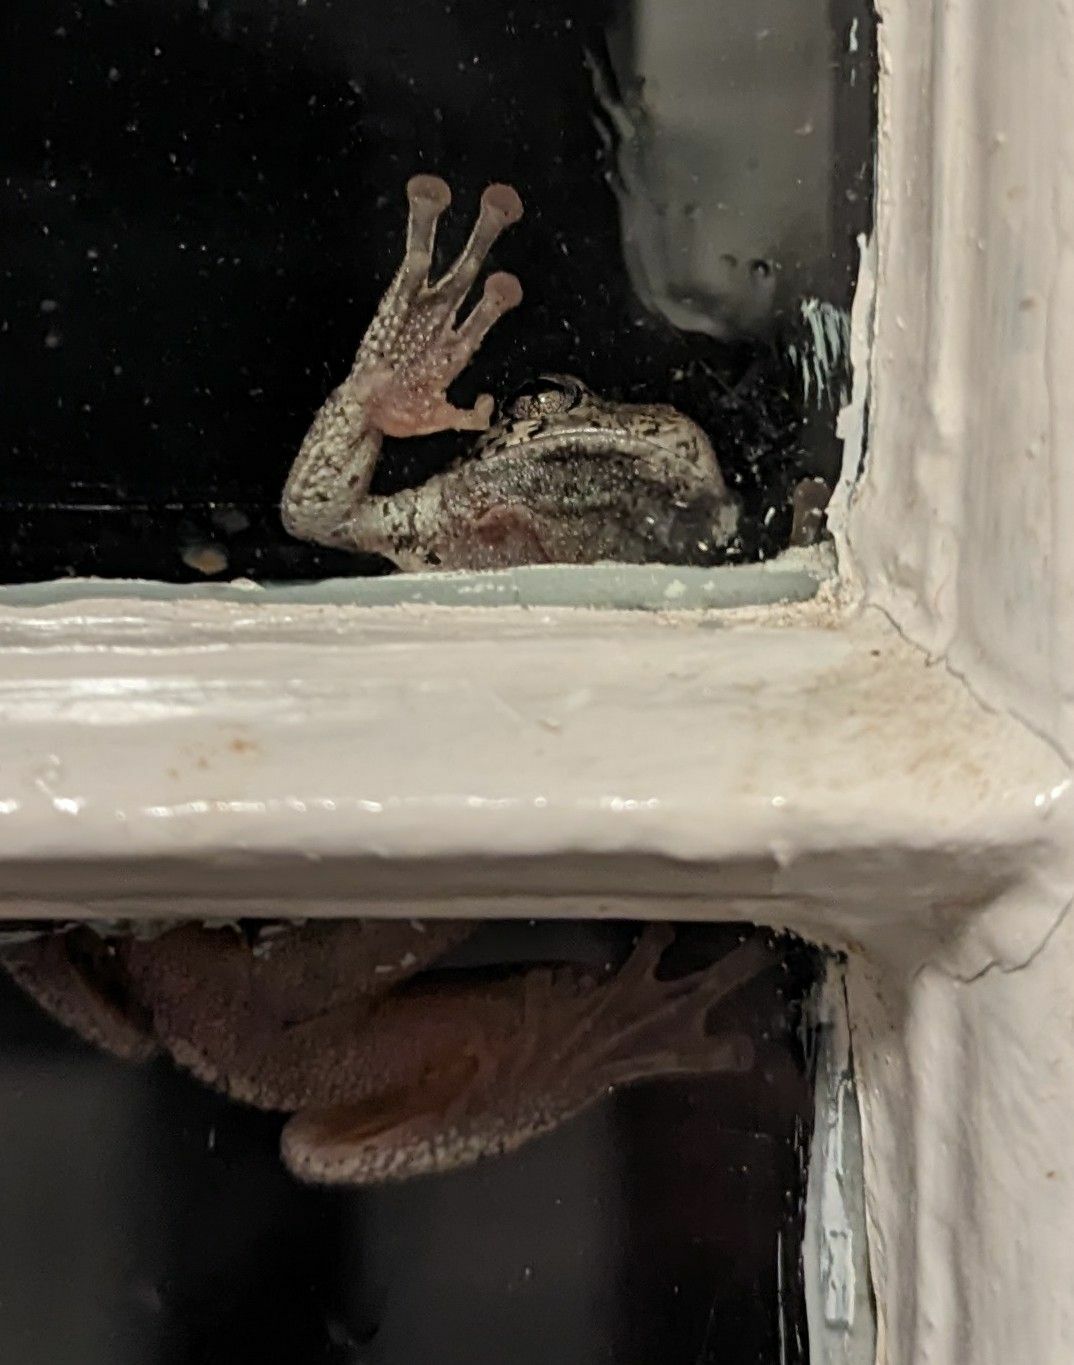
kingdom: Animalia
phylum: Chordata
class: Amphibia
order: Anura
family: Hylidae
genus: Dryophytes
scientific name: Dryophytes versicolor
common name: Gray treefrog
